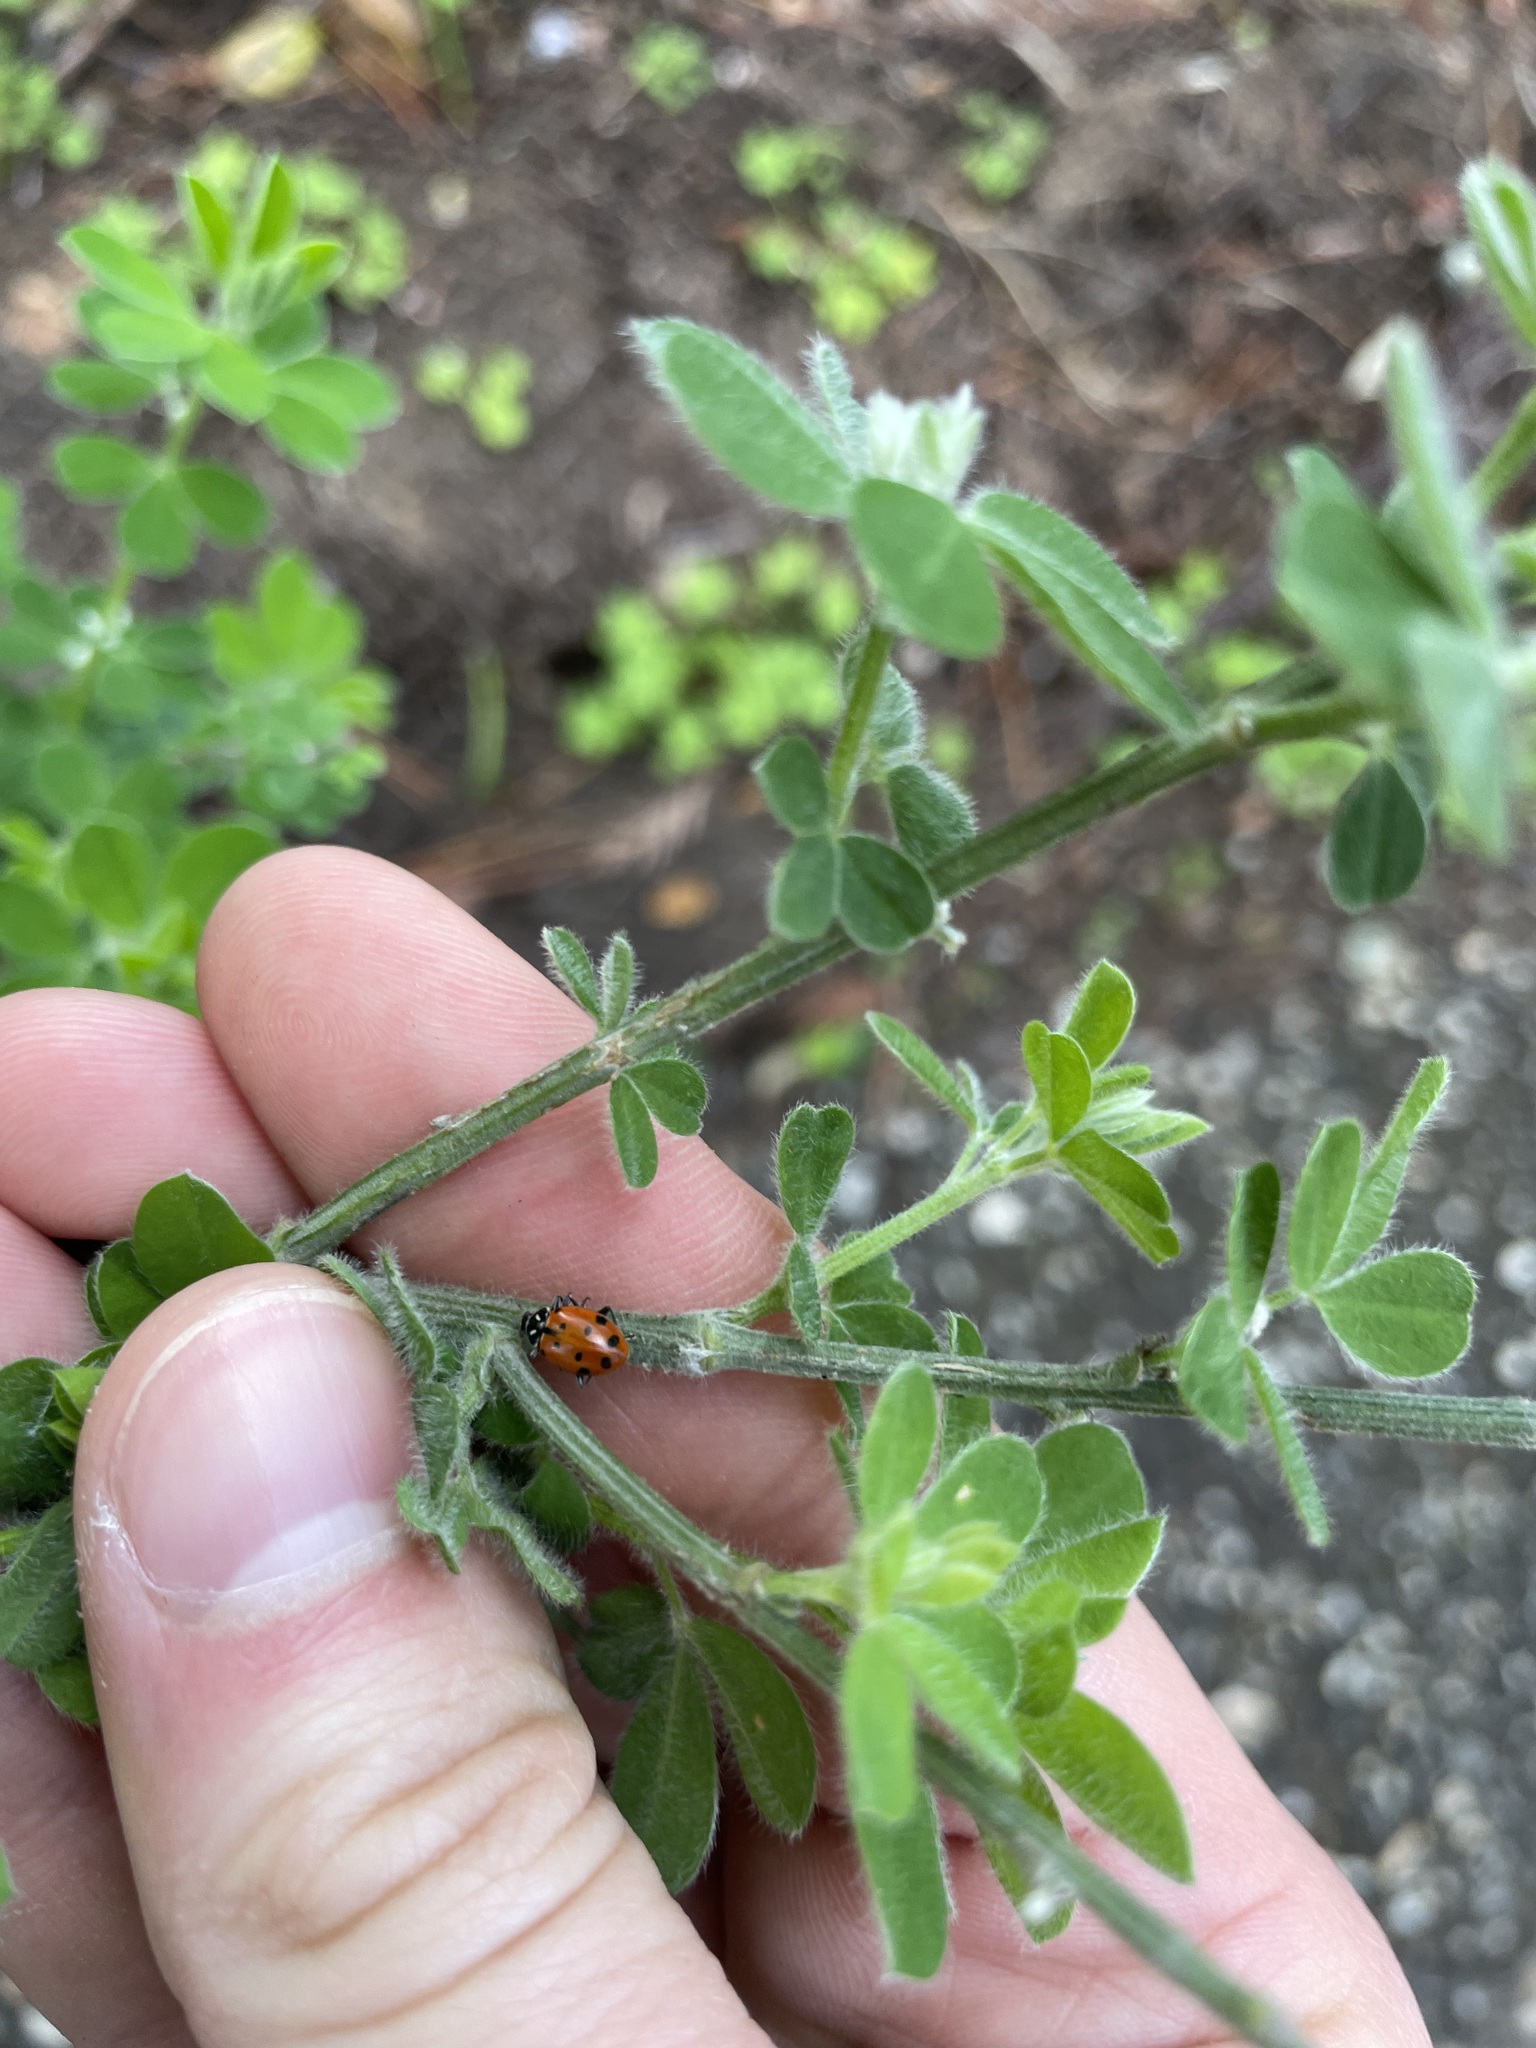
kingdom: Animalia
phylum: Arthropoda
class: Insecta
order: Coleoptera
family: Coccinellidae
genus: Hippodamia
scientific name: Hippodamia convergens
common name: Convergent lady beetle
